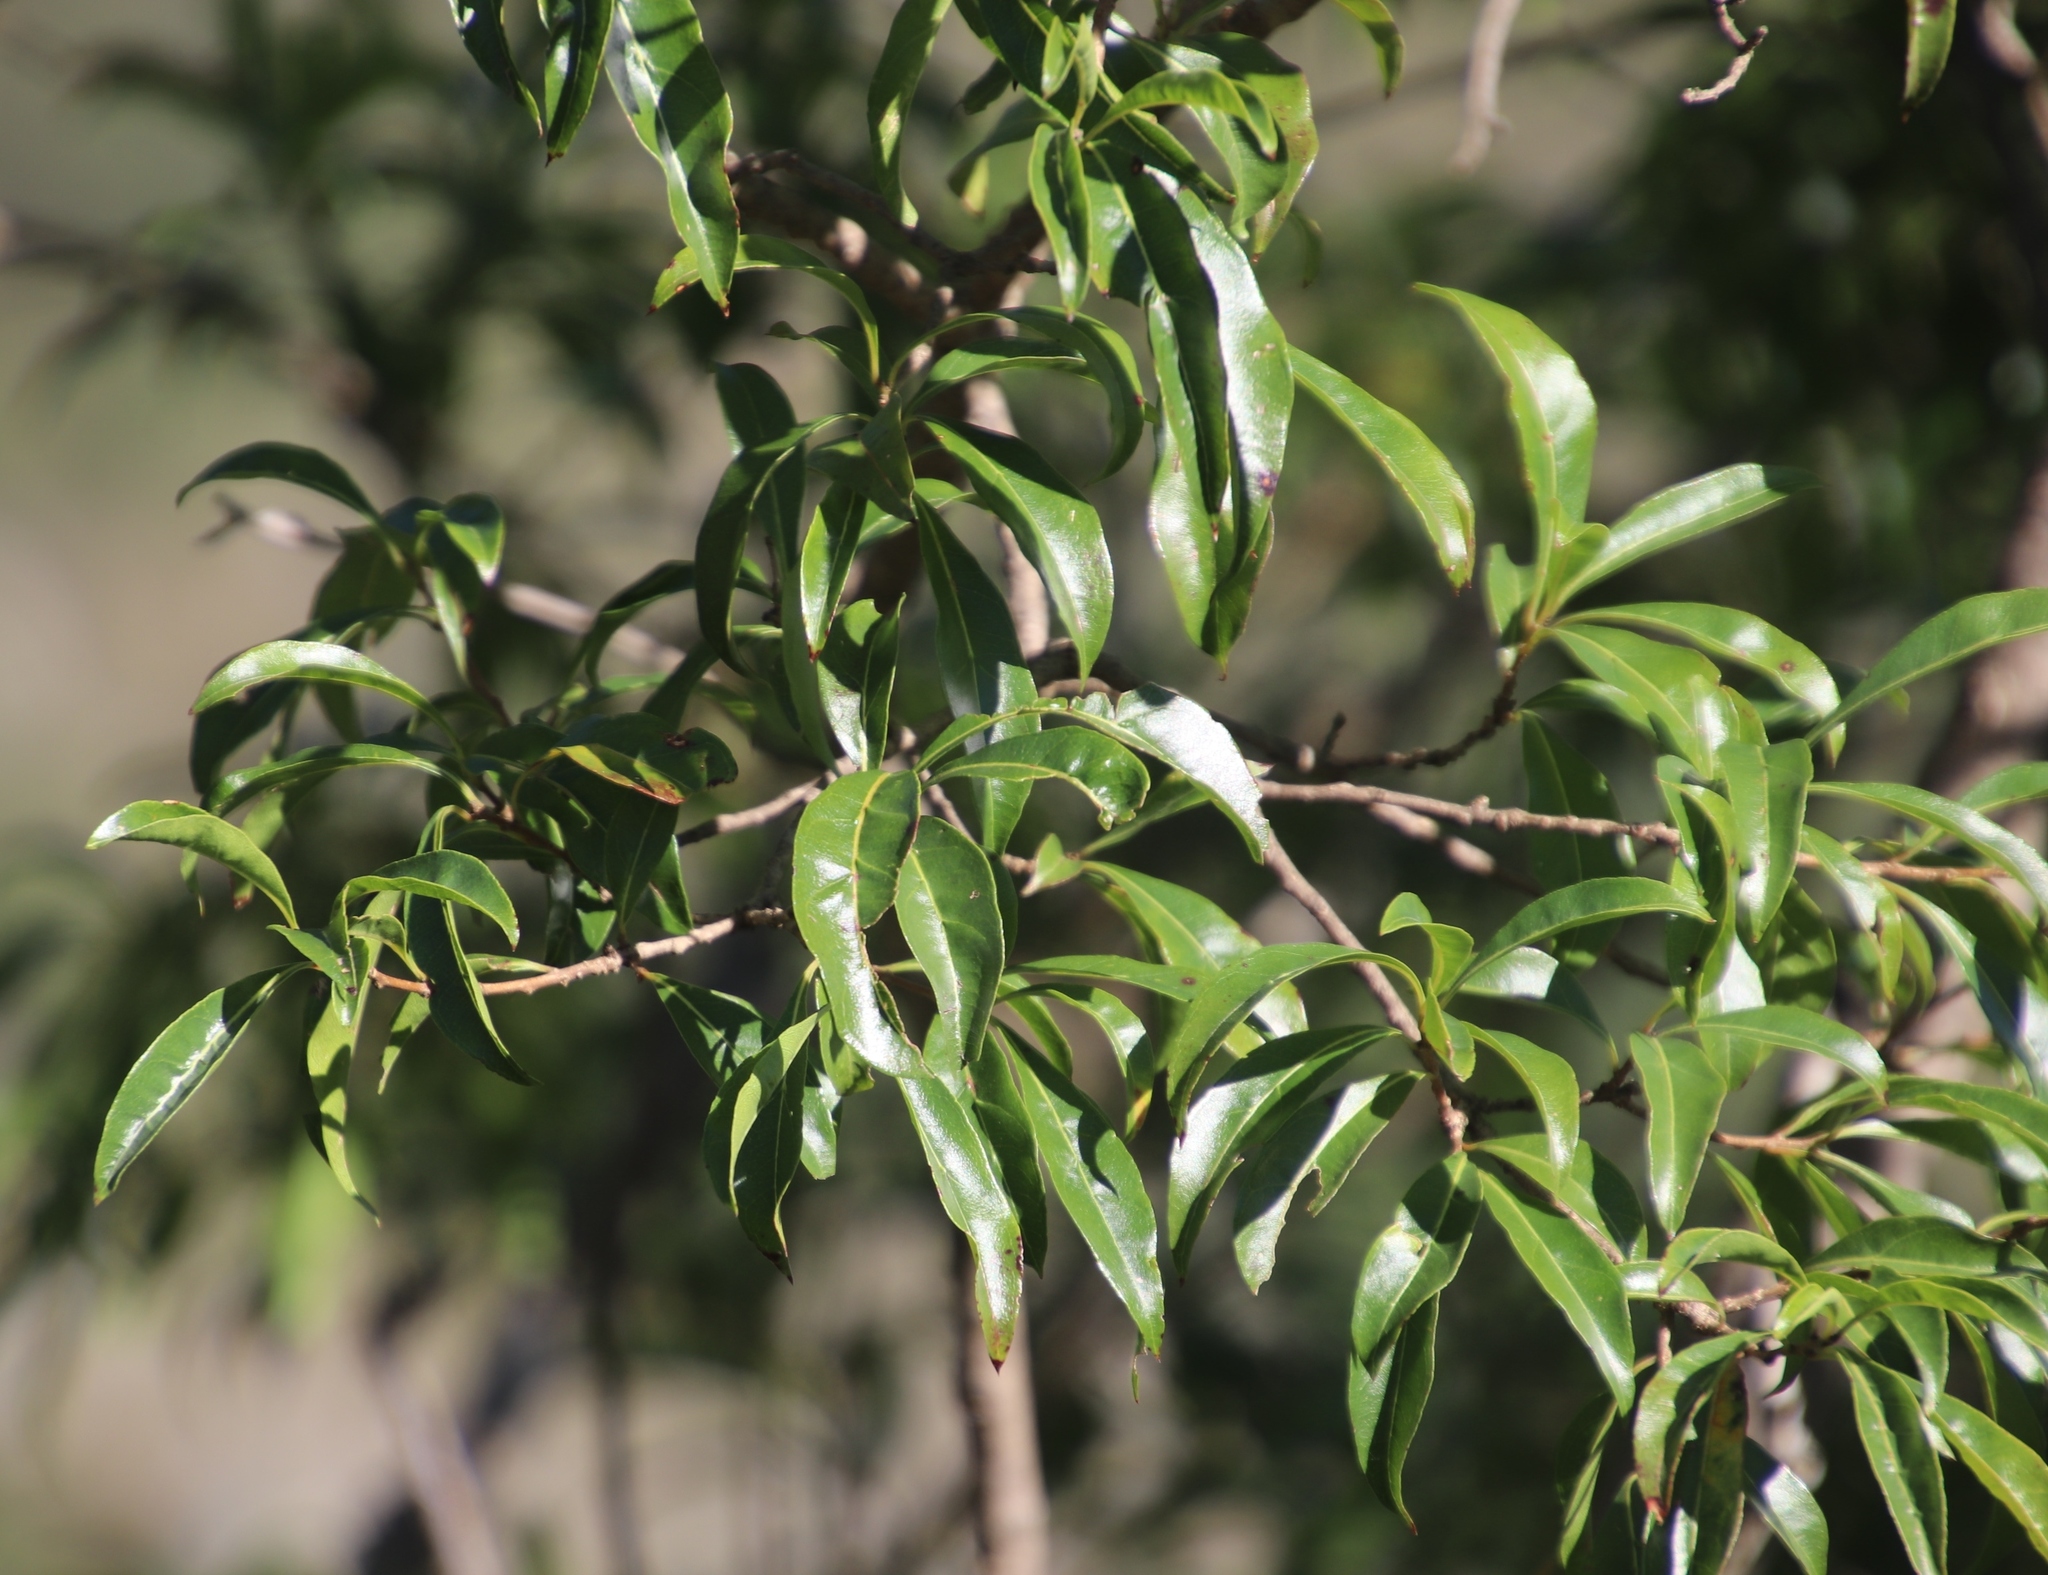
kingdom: Plantae
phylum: Tracheophyta
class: Magnoliopsida
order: Myrtales
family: Myrtaceae
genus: Heteropyxis
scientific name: Heteropyxis natalensis
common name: Lavender tree
